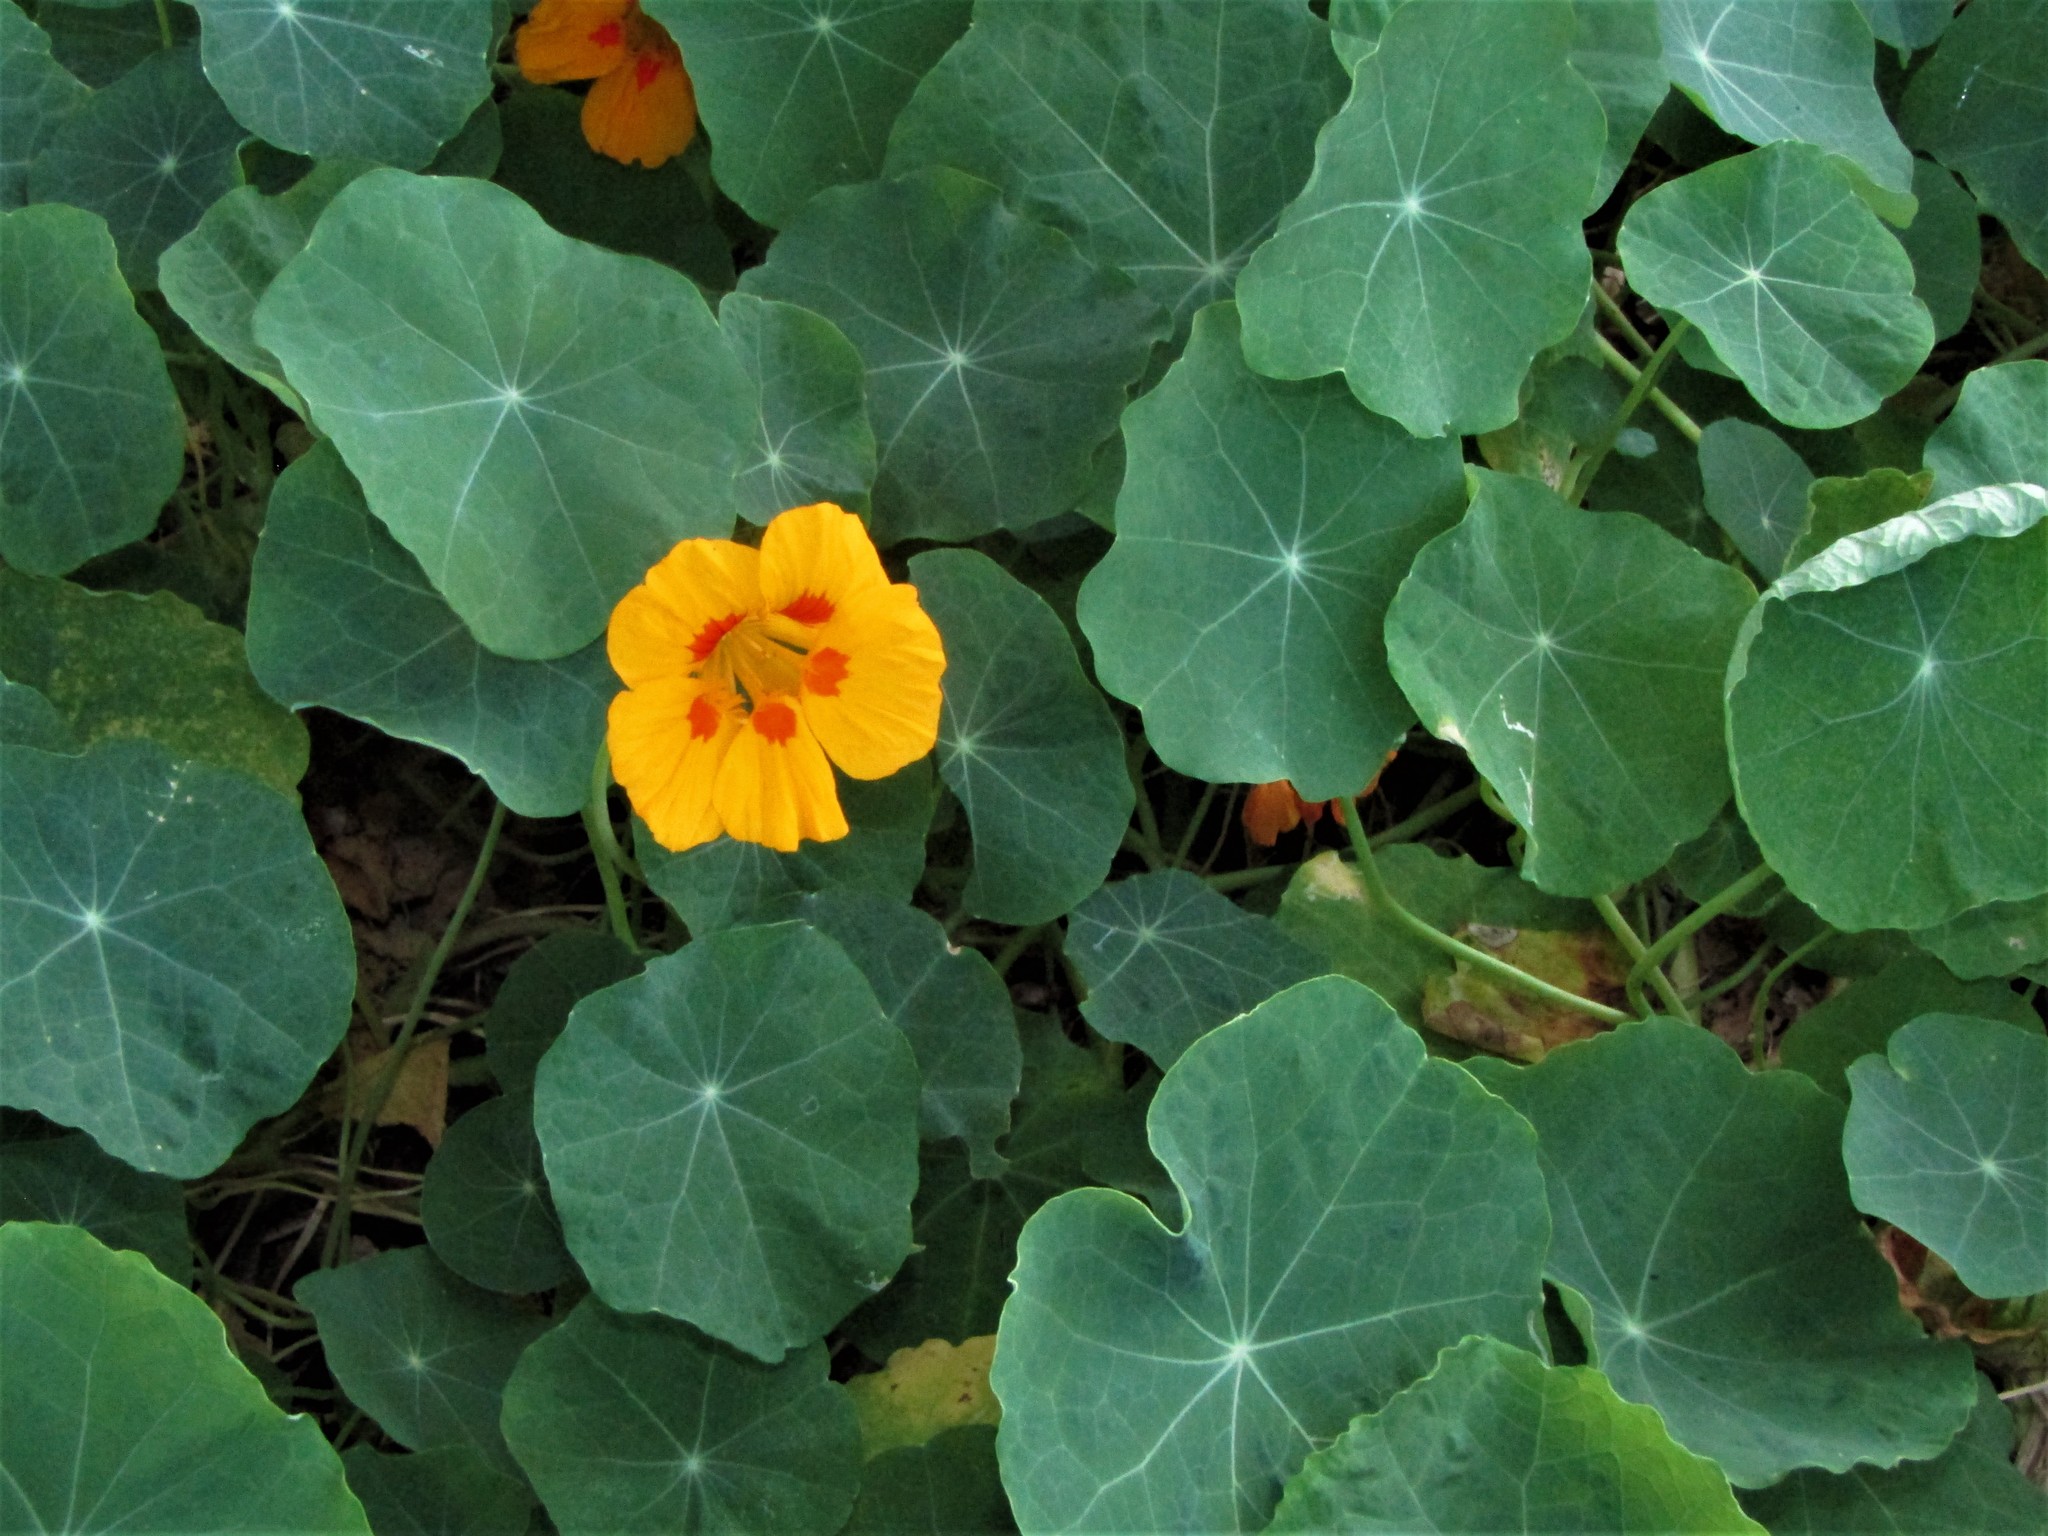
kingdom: Plantae
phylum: Tracheophyta
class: Magnoliopsida
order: Brassicales
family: Tropaeolaceae
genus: Tropaeolum
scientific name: Tropaeolum majus
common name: Nasturtium
